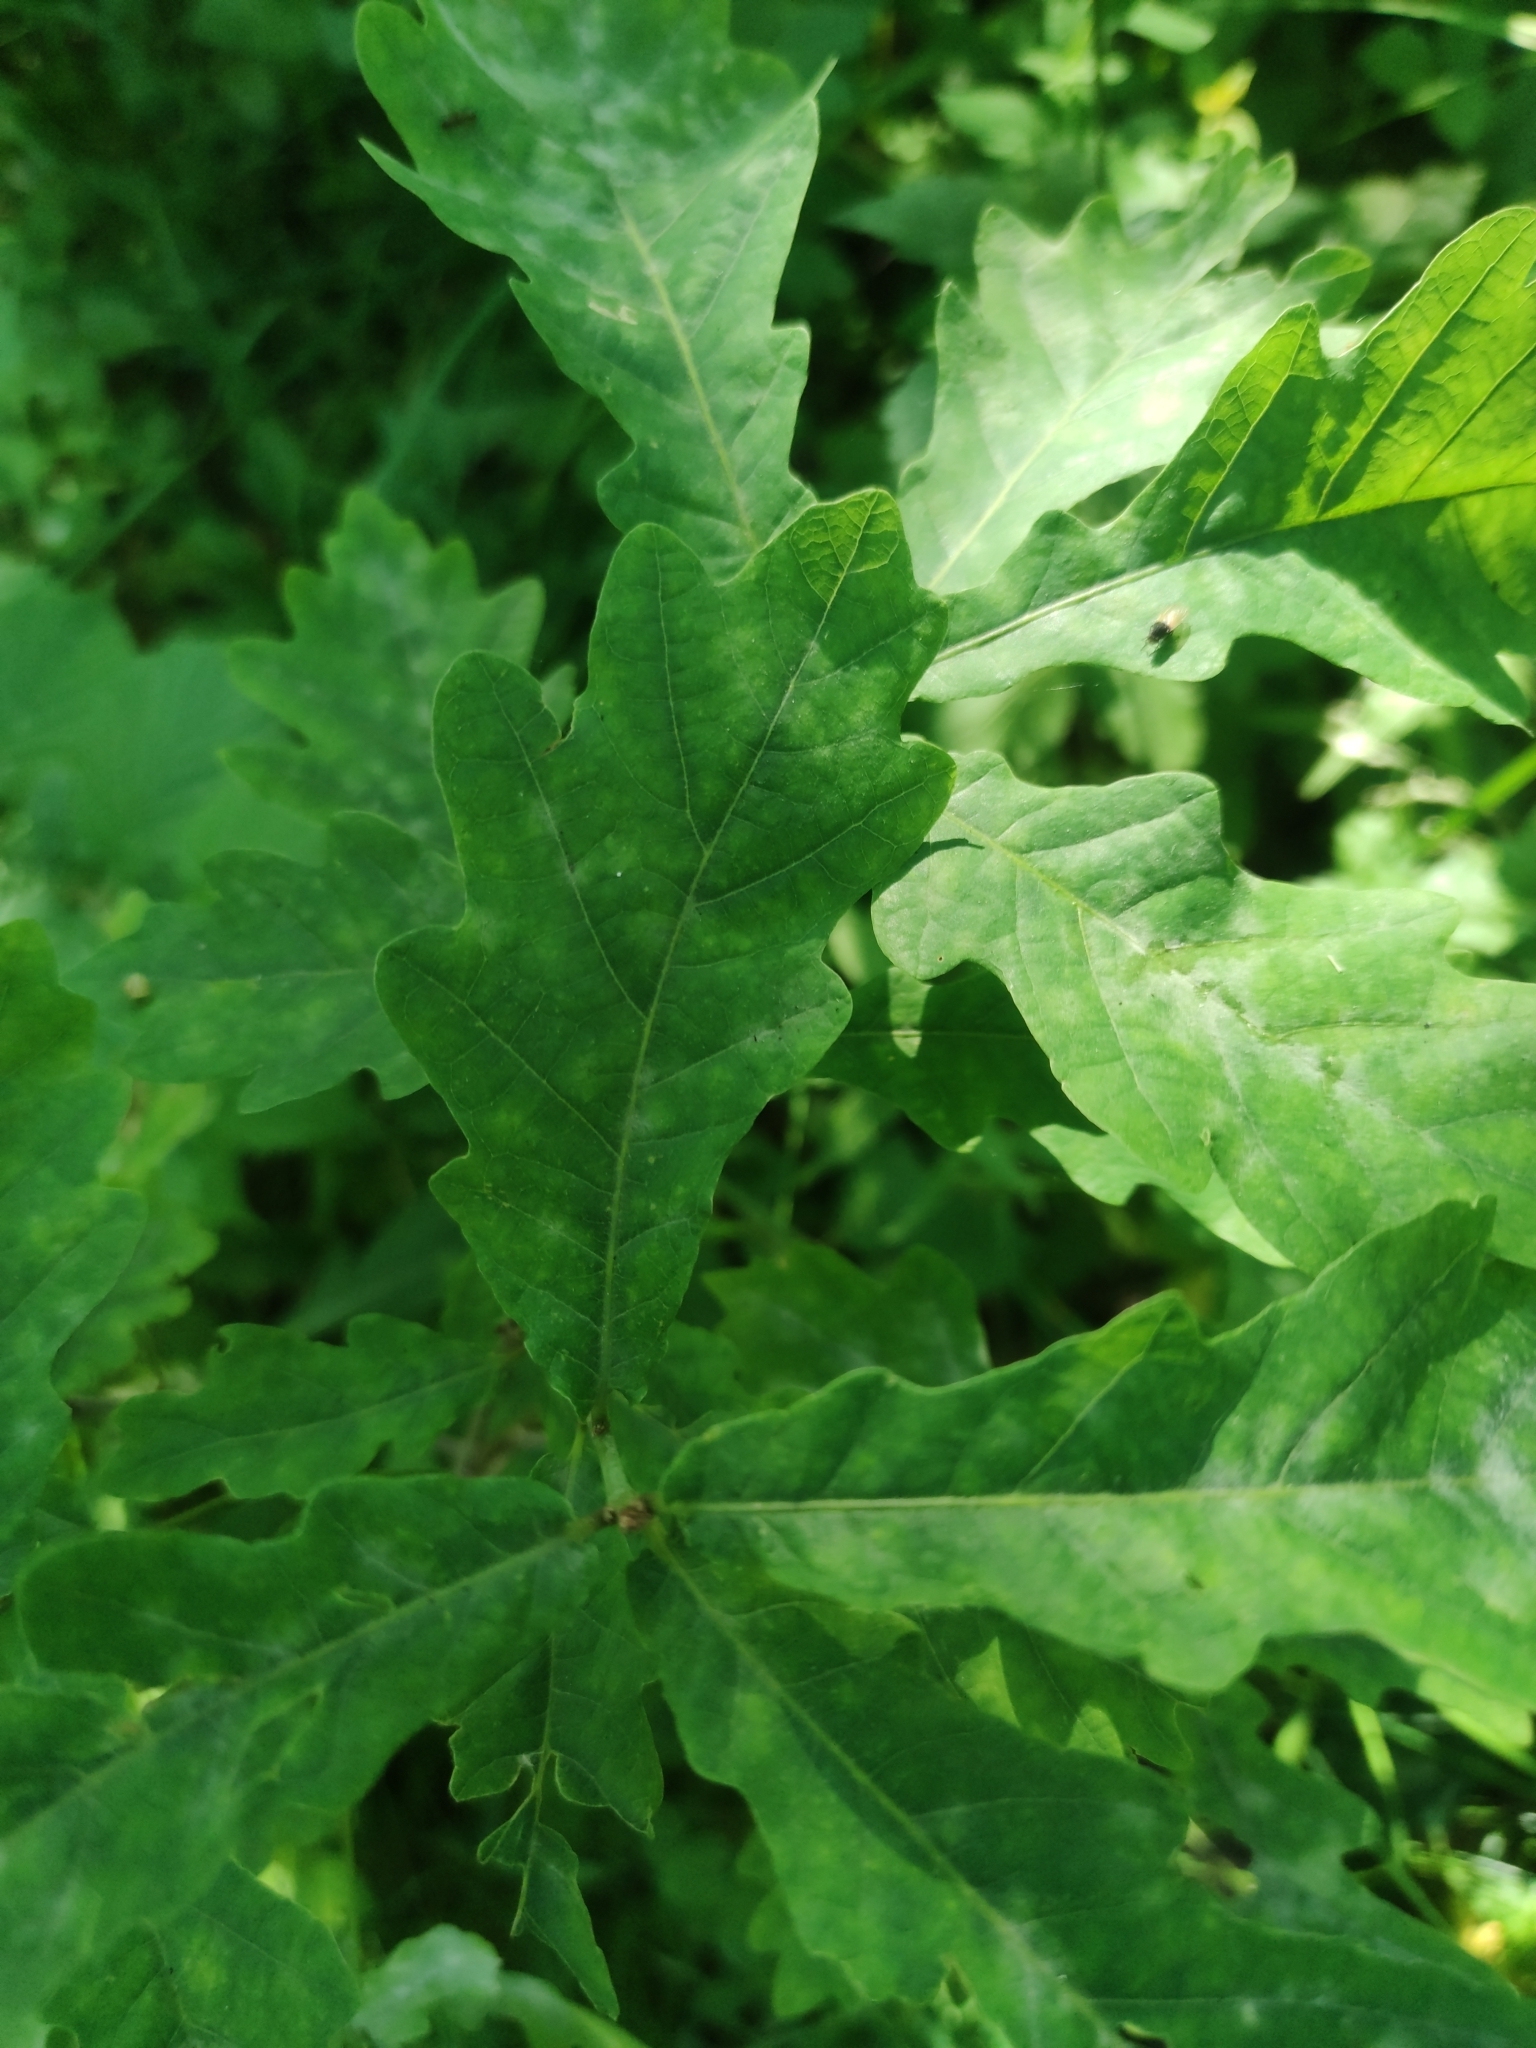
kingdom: Fungi
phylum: Ascomycota
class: Leotiomycetes
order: Helotiales
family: Erysiphaceae
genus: Erysiphe
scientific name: Erysiphe alphitoides
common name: Oak mildew
